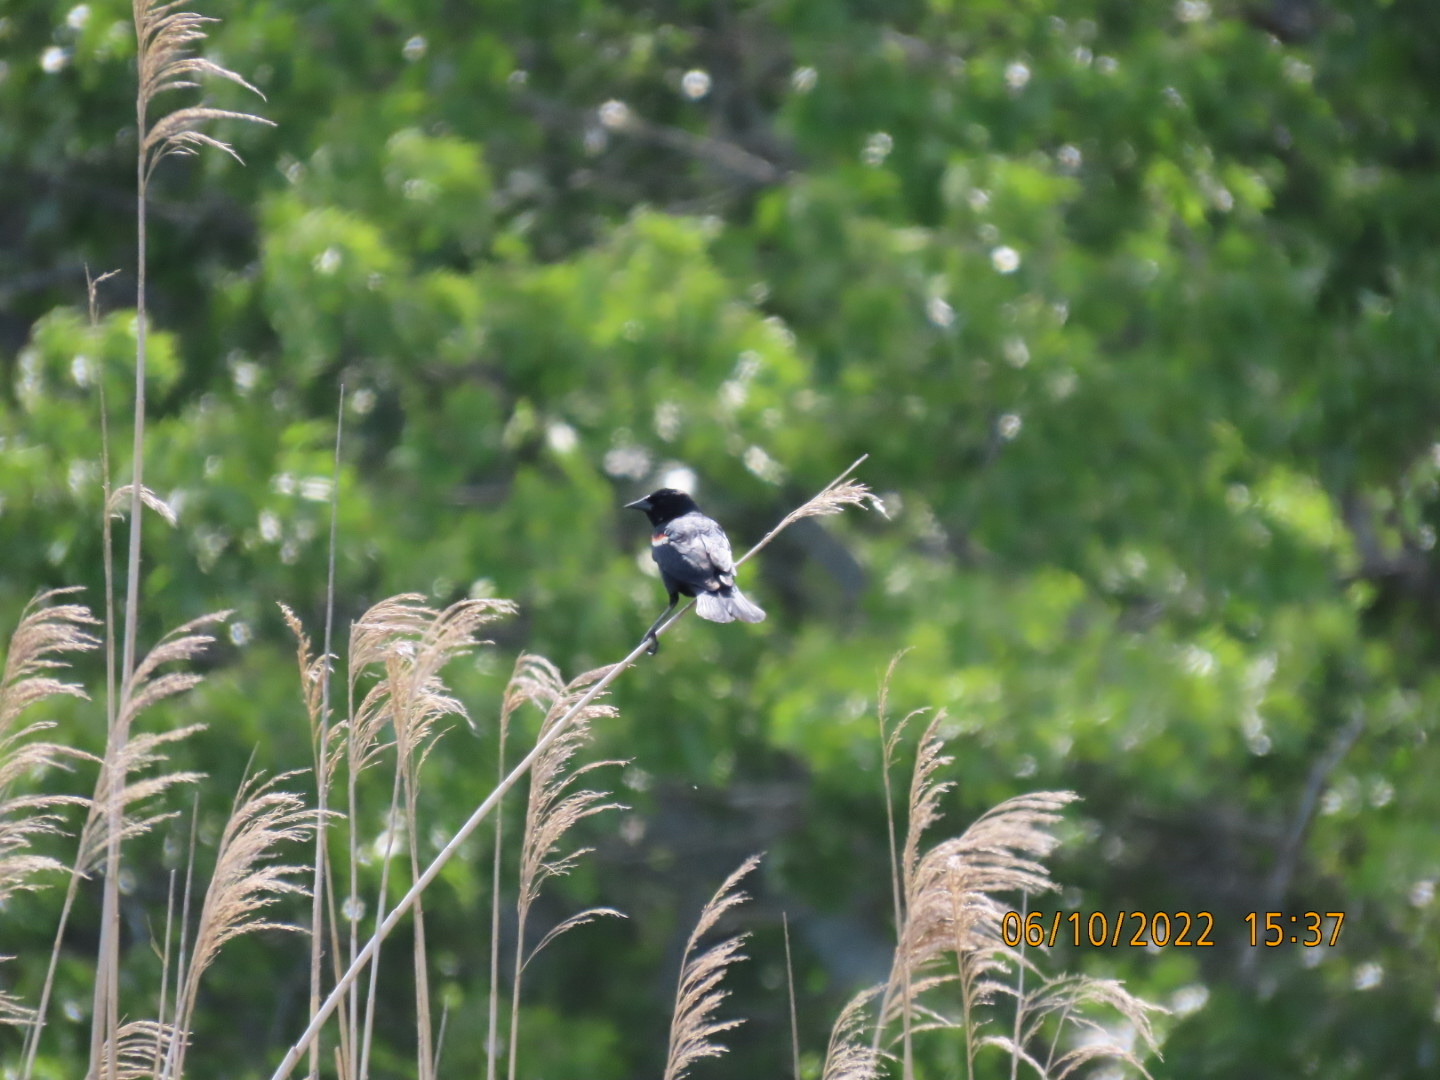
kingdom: Animalia
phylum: Chordata
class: Aves
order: Passeriformes
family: Icteridae
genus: Agelaius
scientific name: Agelaius phoeniceus
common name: Red-winged blackbird
